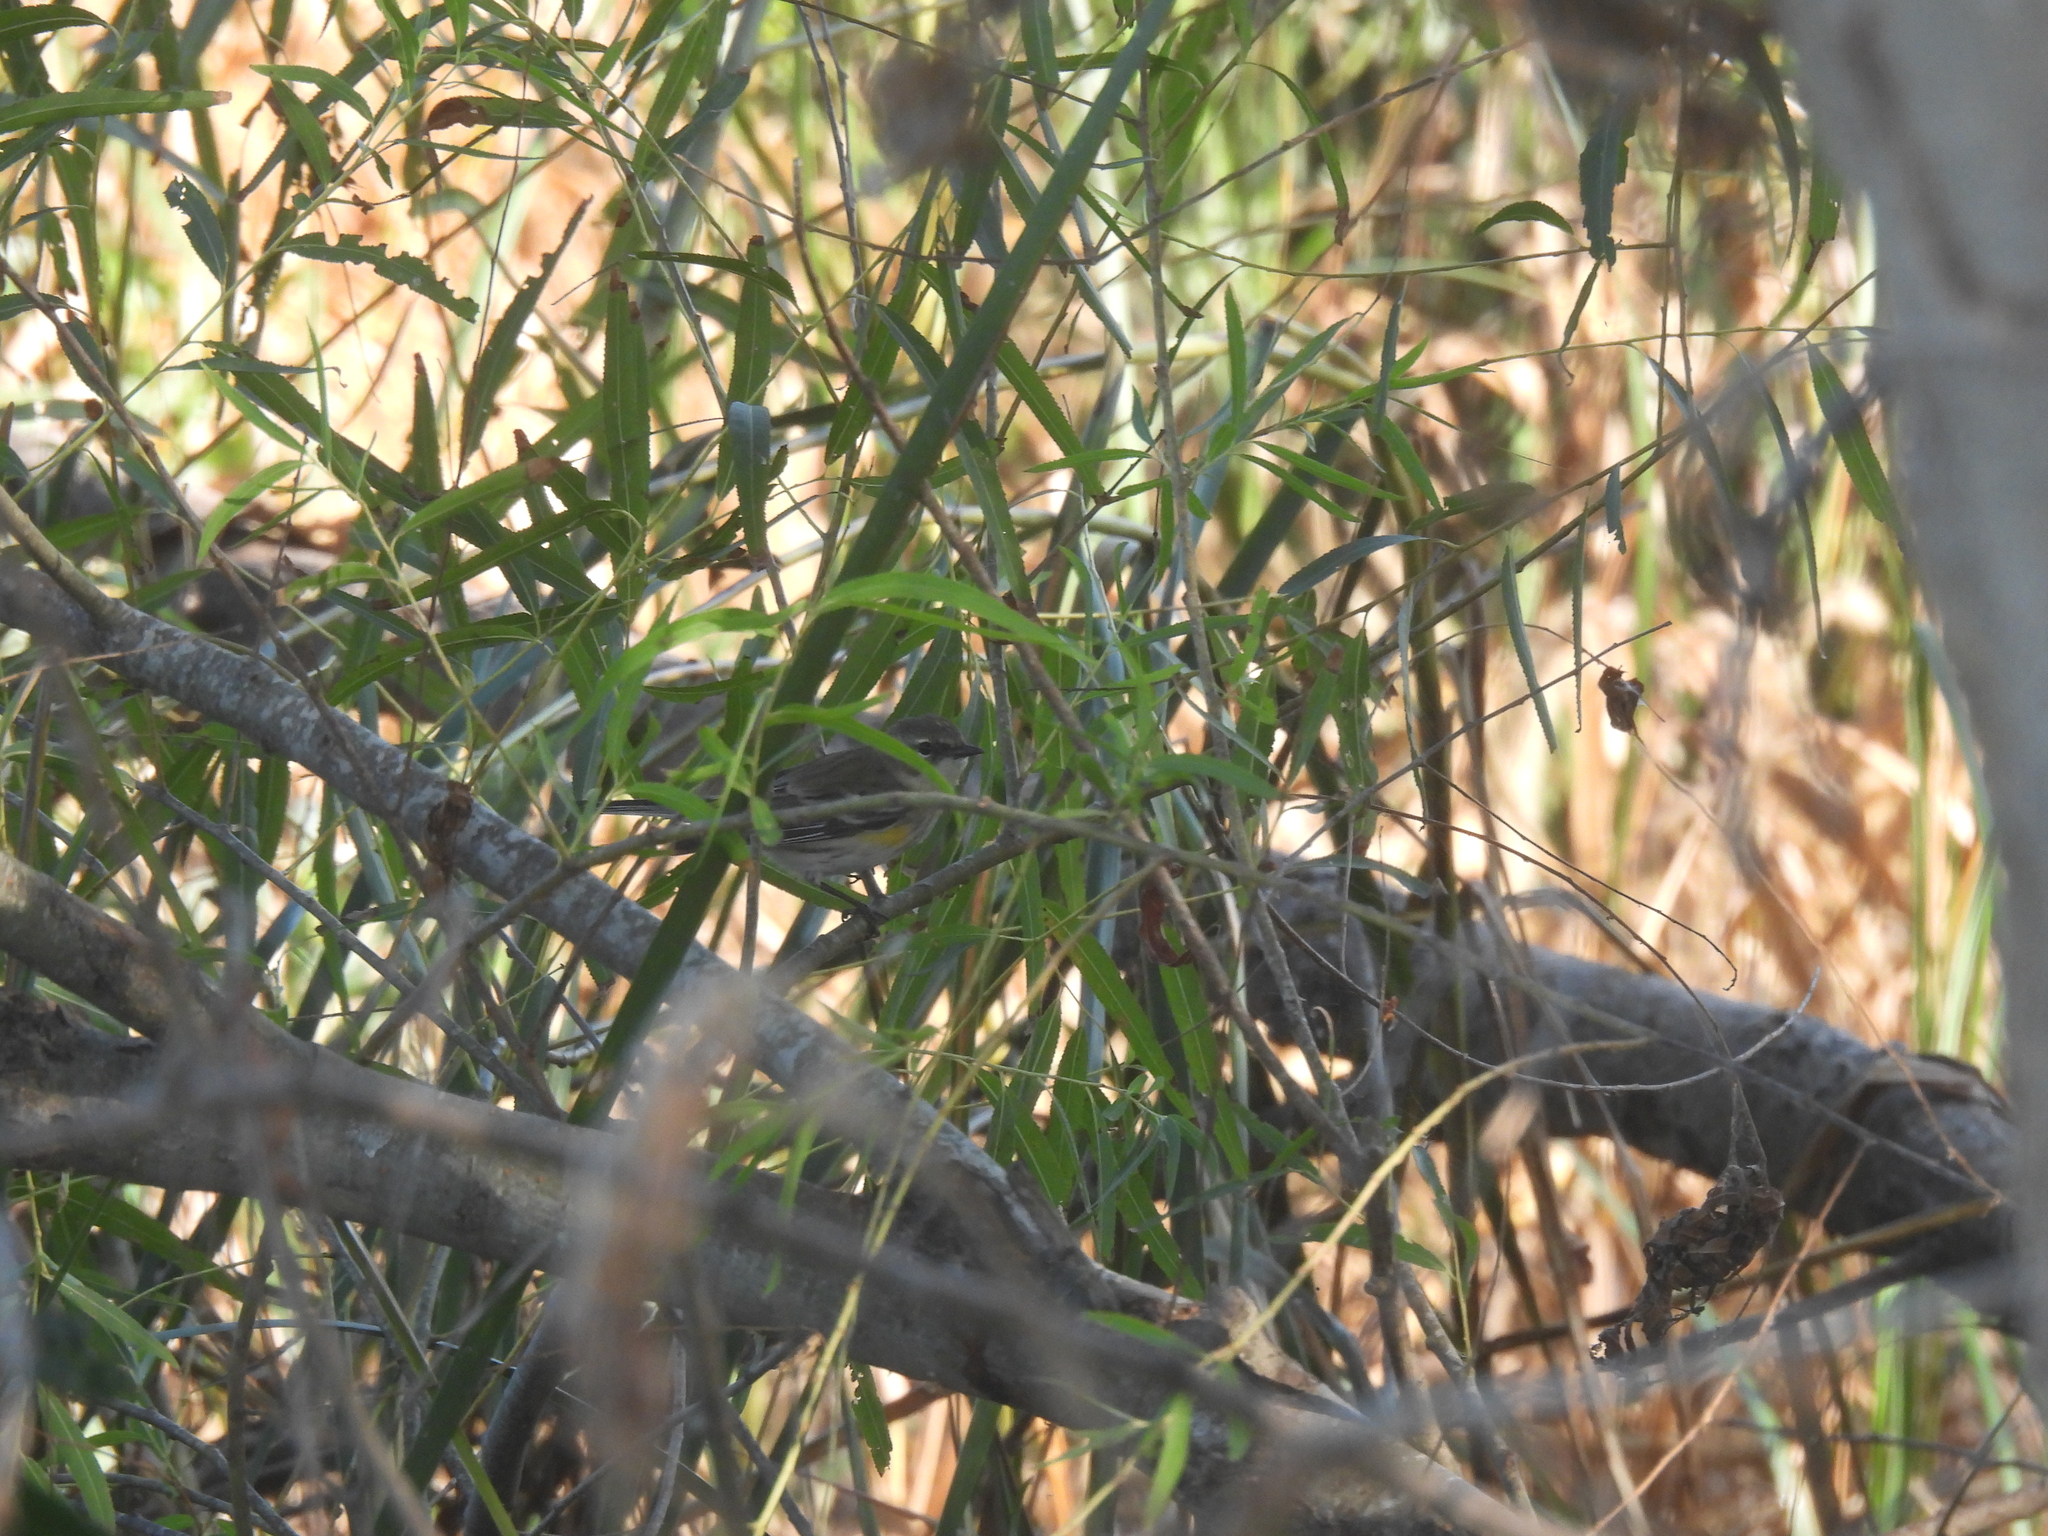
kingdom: Animalia
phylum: Chordata
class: Aves
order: Passeriformes
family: Parulidae
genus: Setophaga
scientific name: Setophaga coronata
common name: Myrtle warbler
